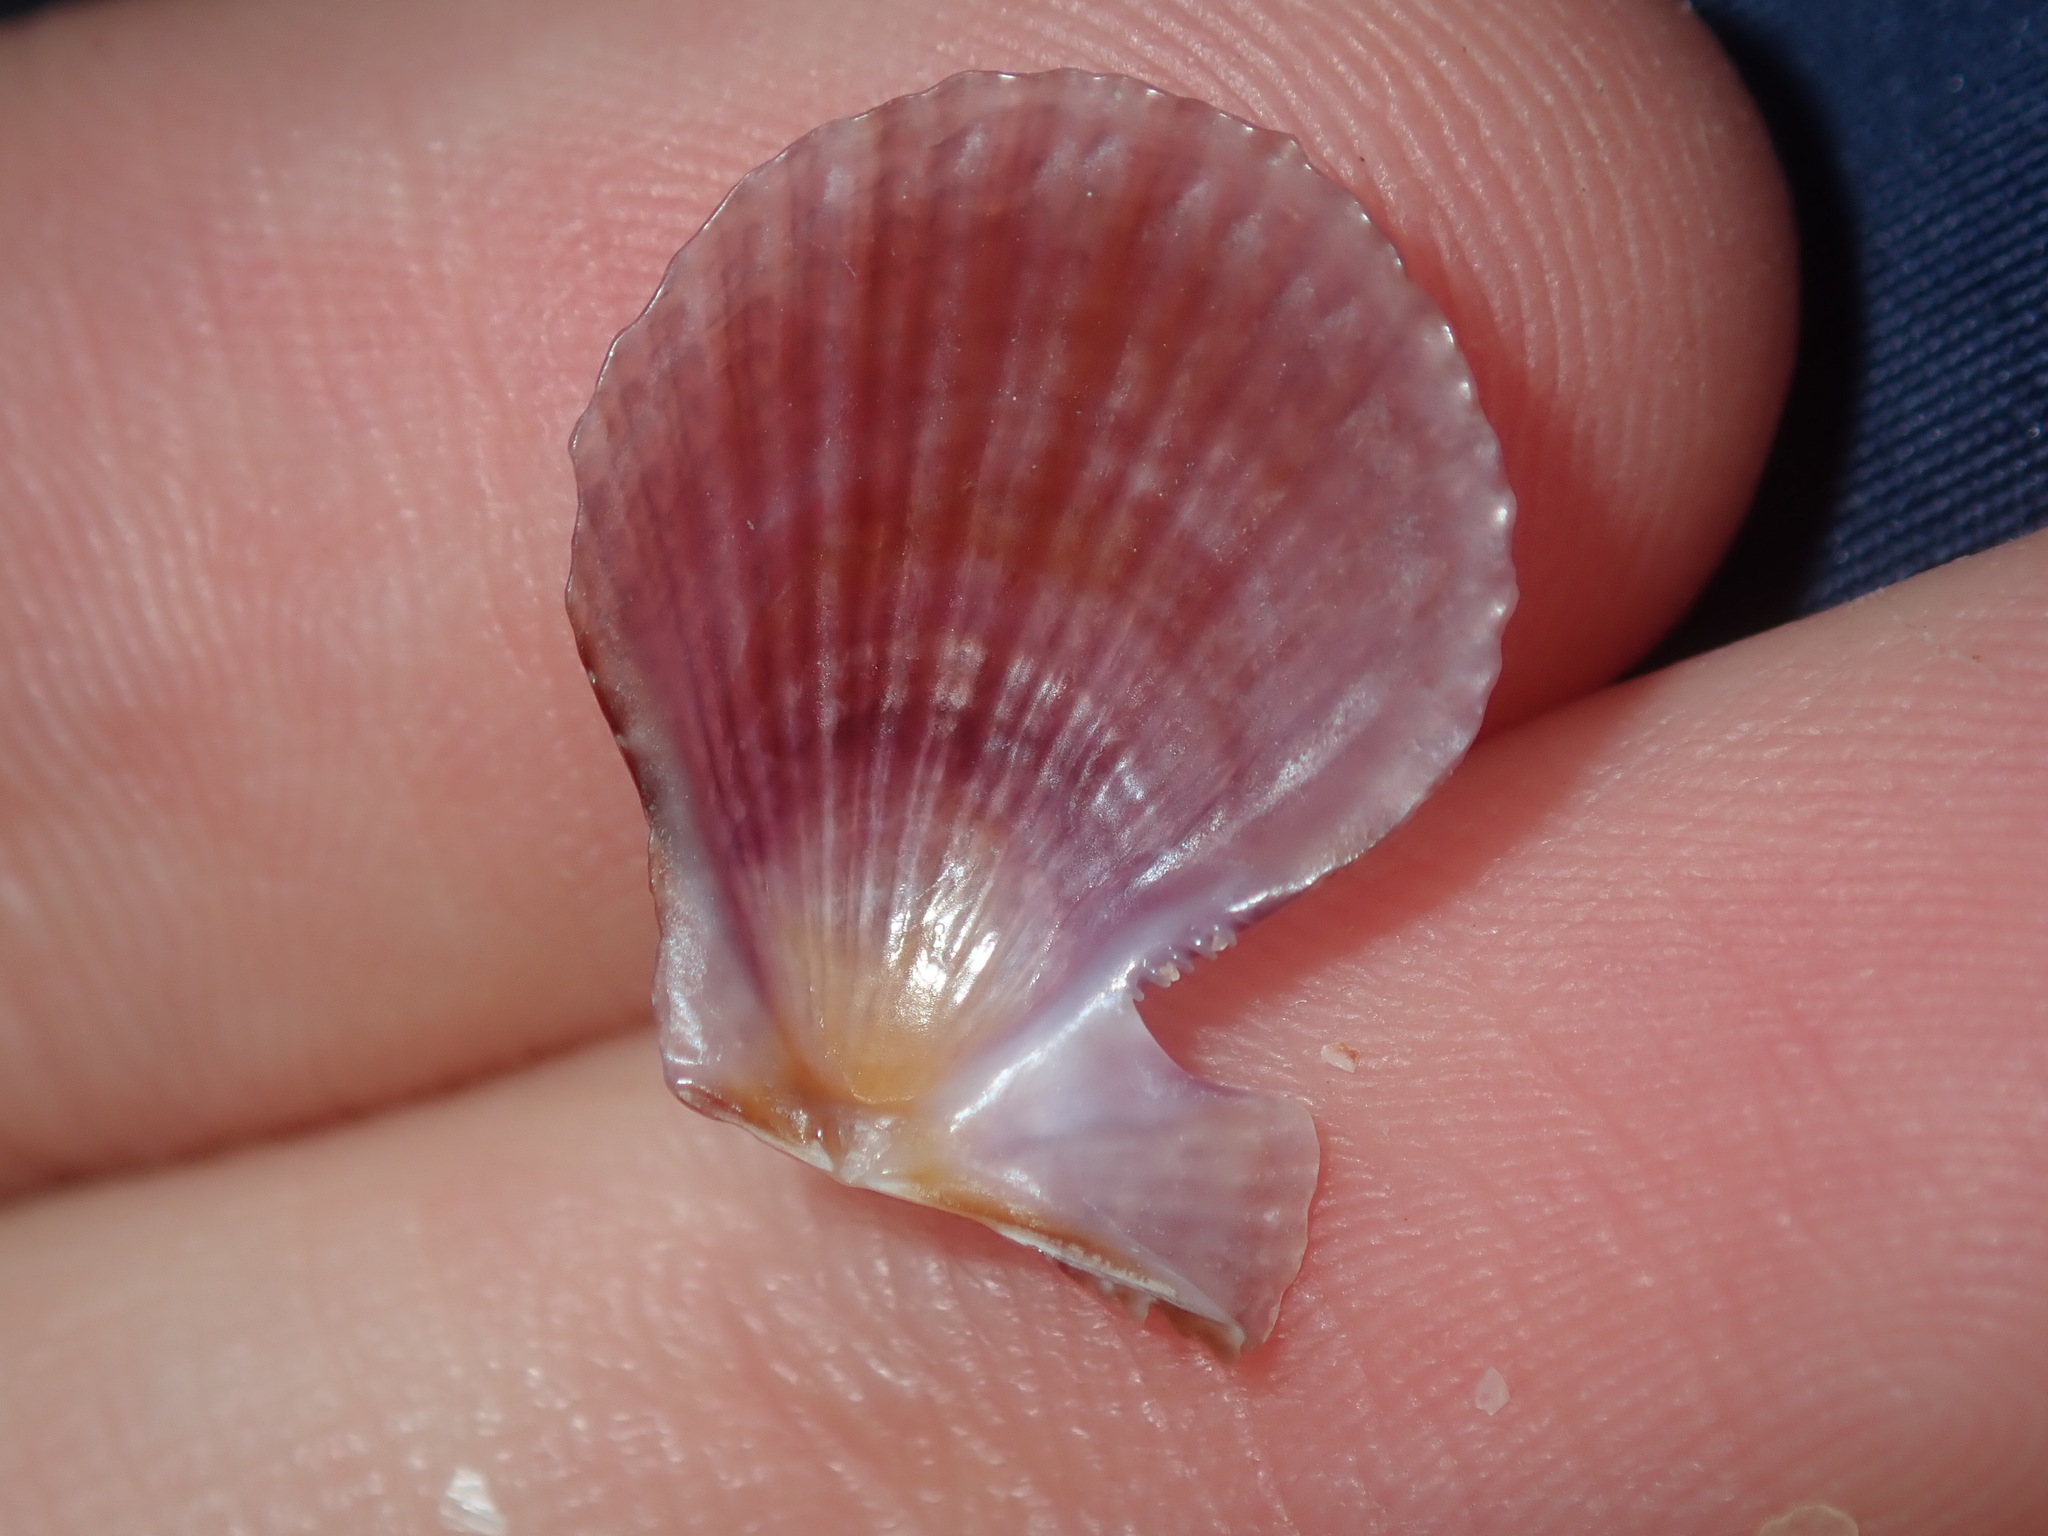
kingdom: Animalia
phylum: Mollusca
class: Bivalvia
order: Pectinida
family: Pectinidae
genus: Scaeochlamys
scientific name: Scaeochlamys livida
